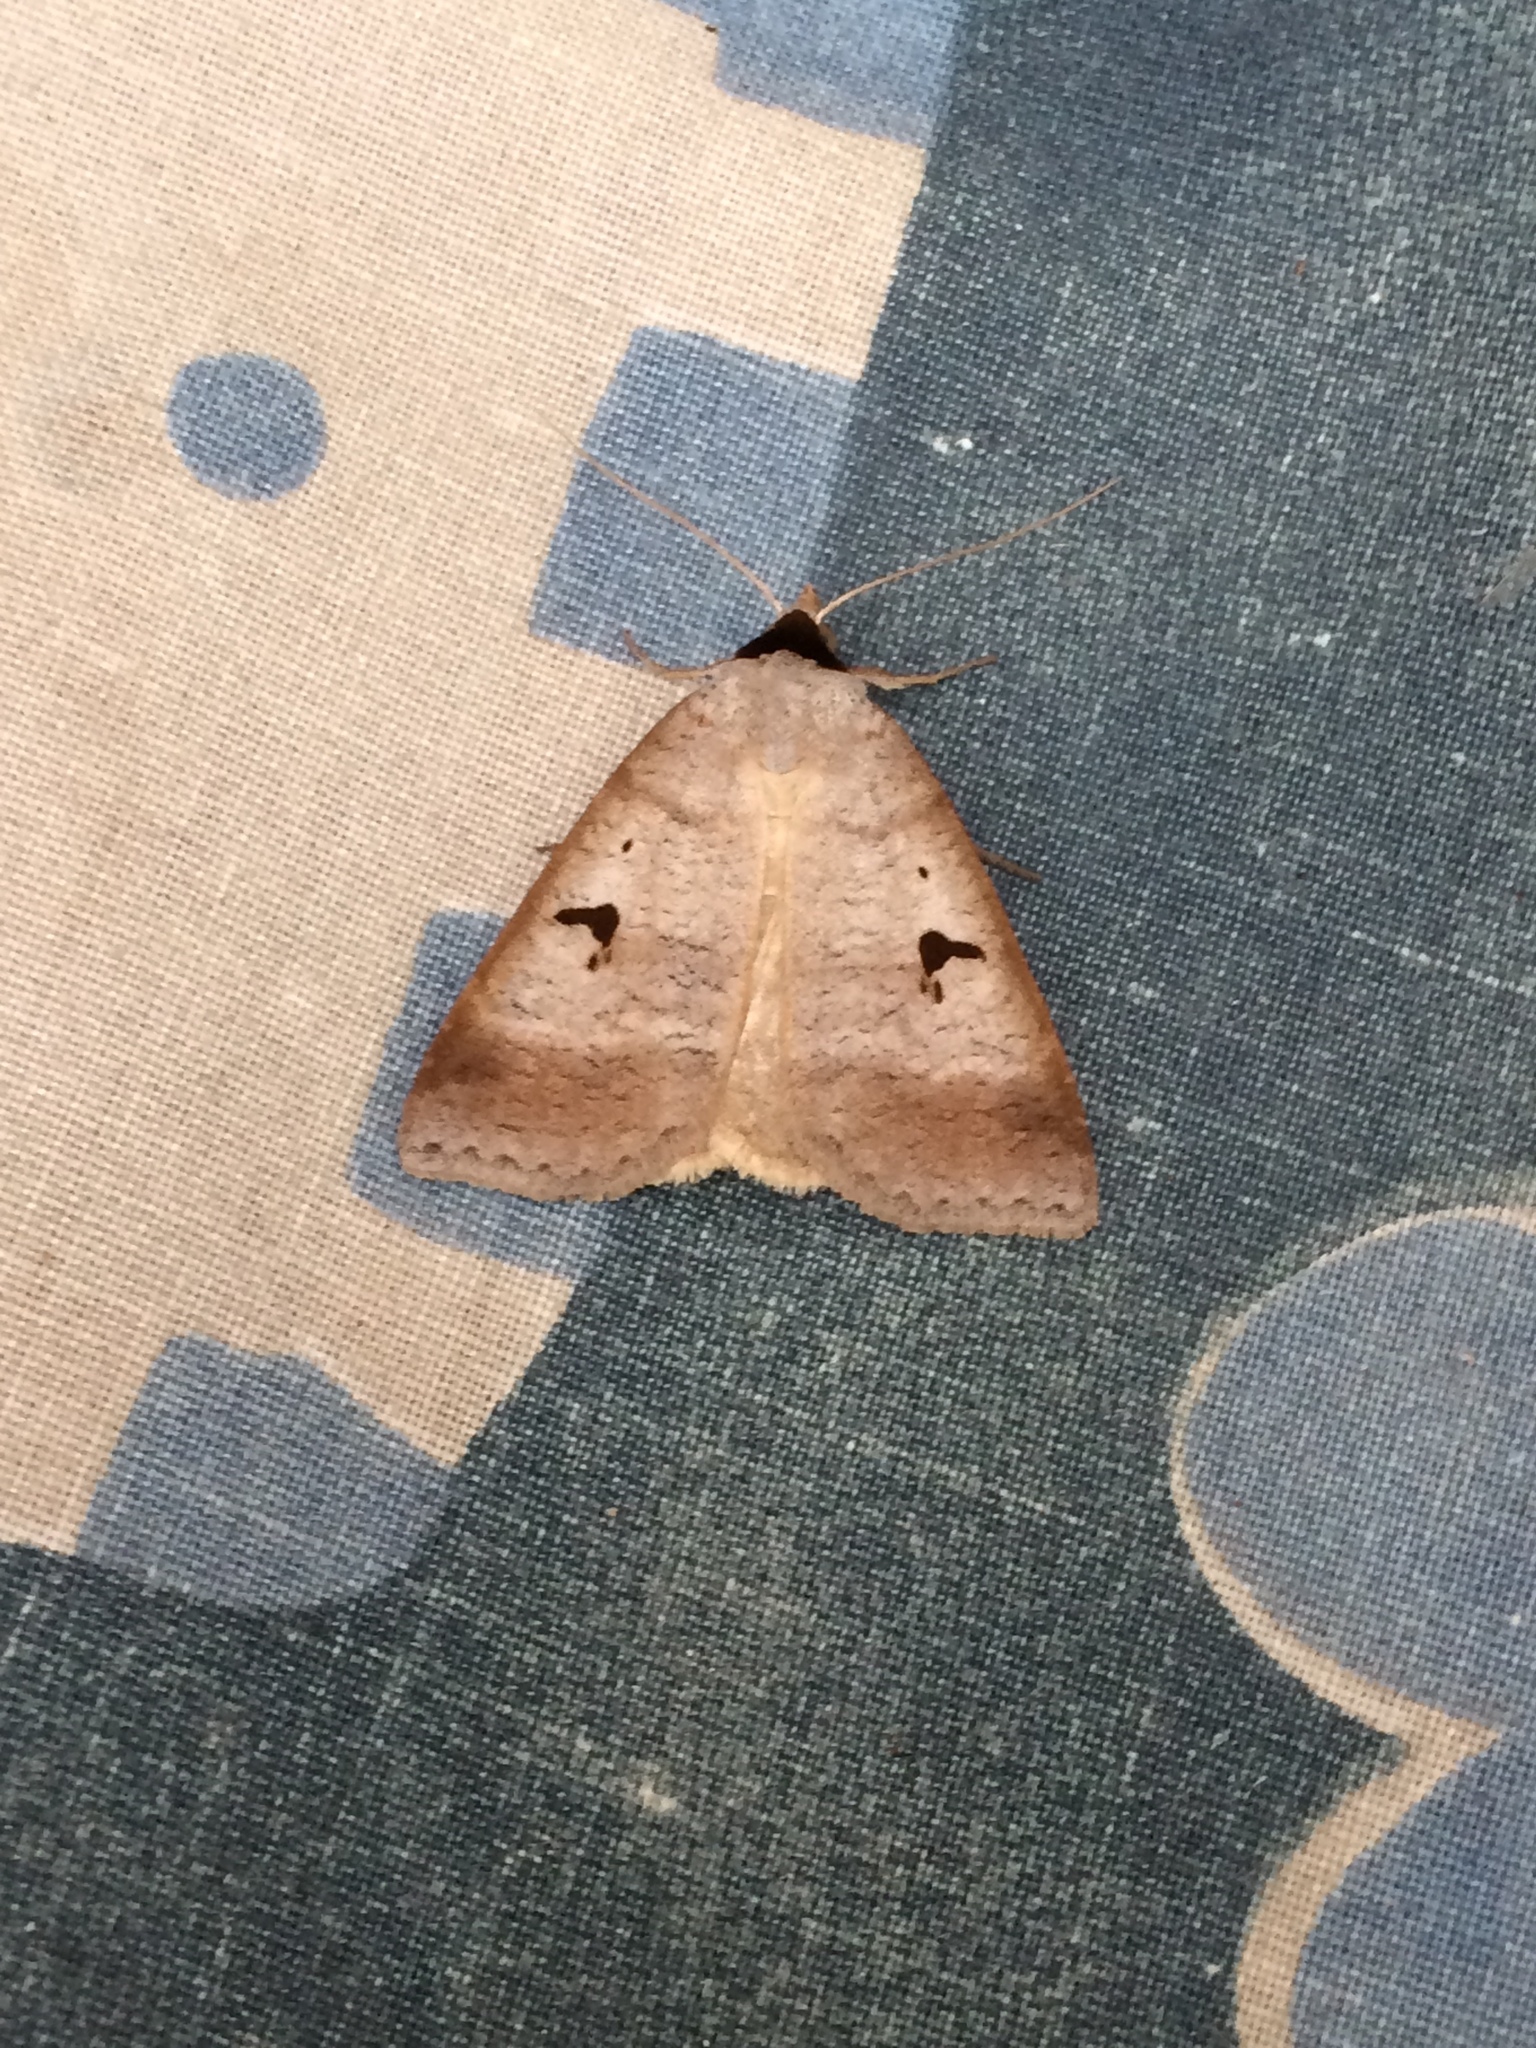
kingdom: Animalia
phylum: Arthropoda
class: Insecta
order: Lepidoptera
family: Erebidae
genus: Lygephila
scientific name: Lygephila pastinum
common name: Blackneck
